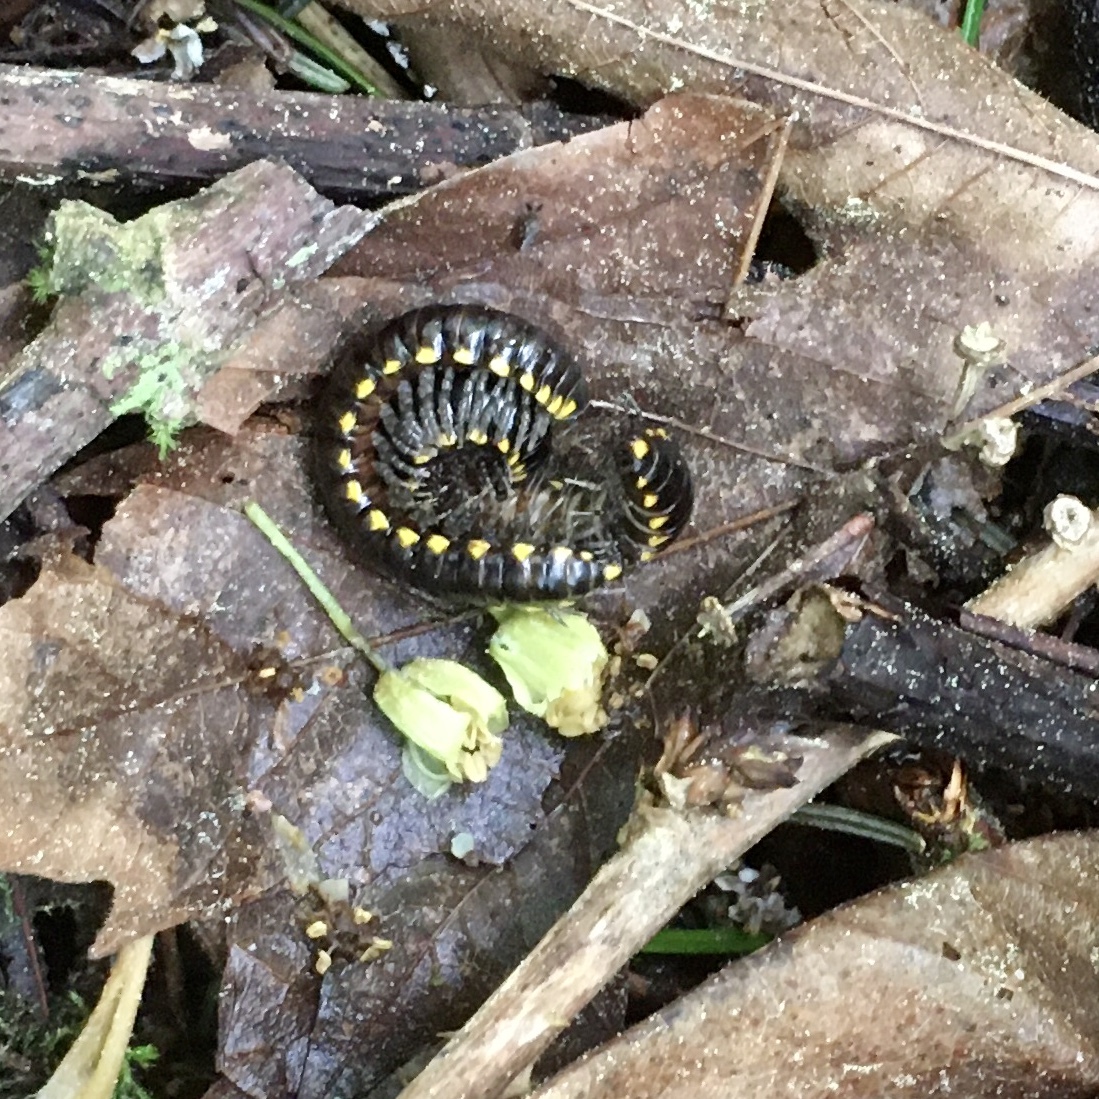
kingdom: Animalia
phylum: Arthropoda
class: Diplopoda
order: Polydesmida
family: Xystodesmidae
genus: Harpaphe
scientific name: Harpaphe haydeniana
